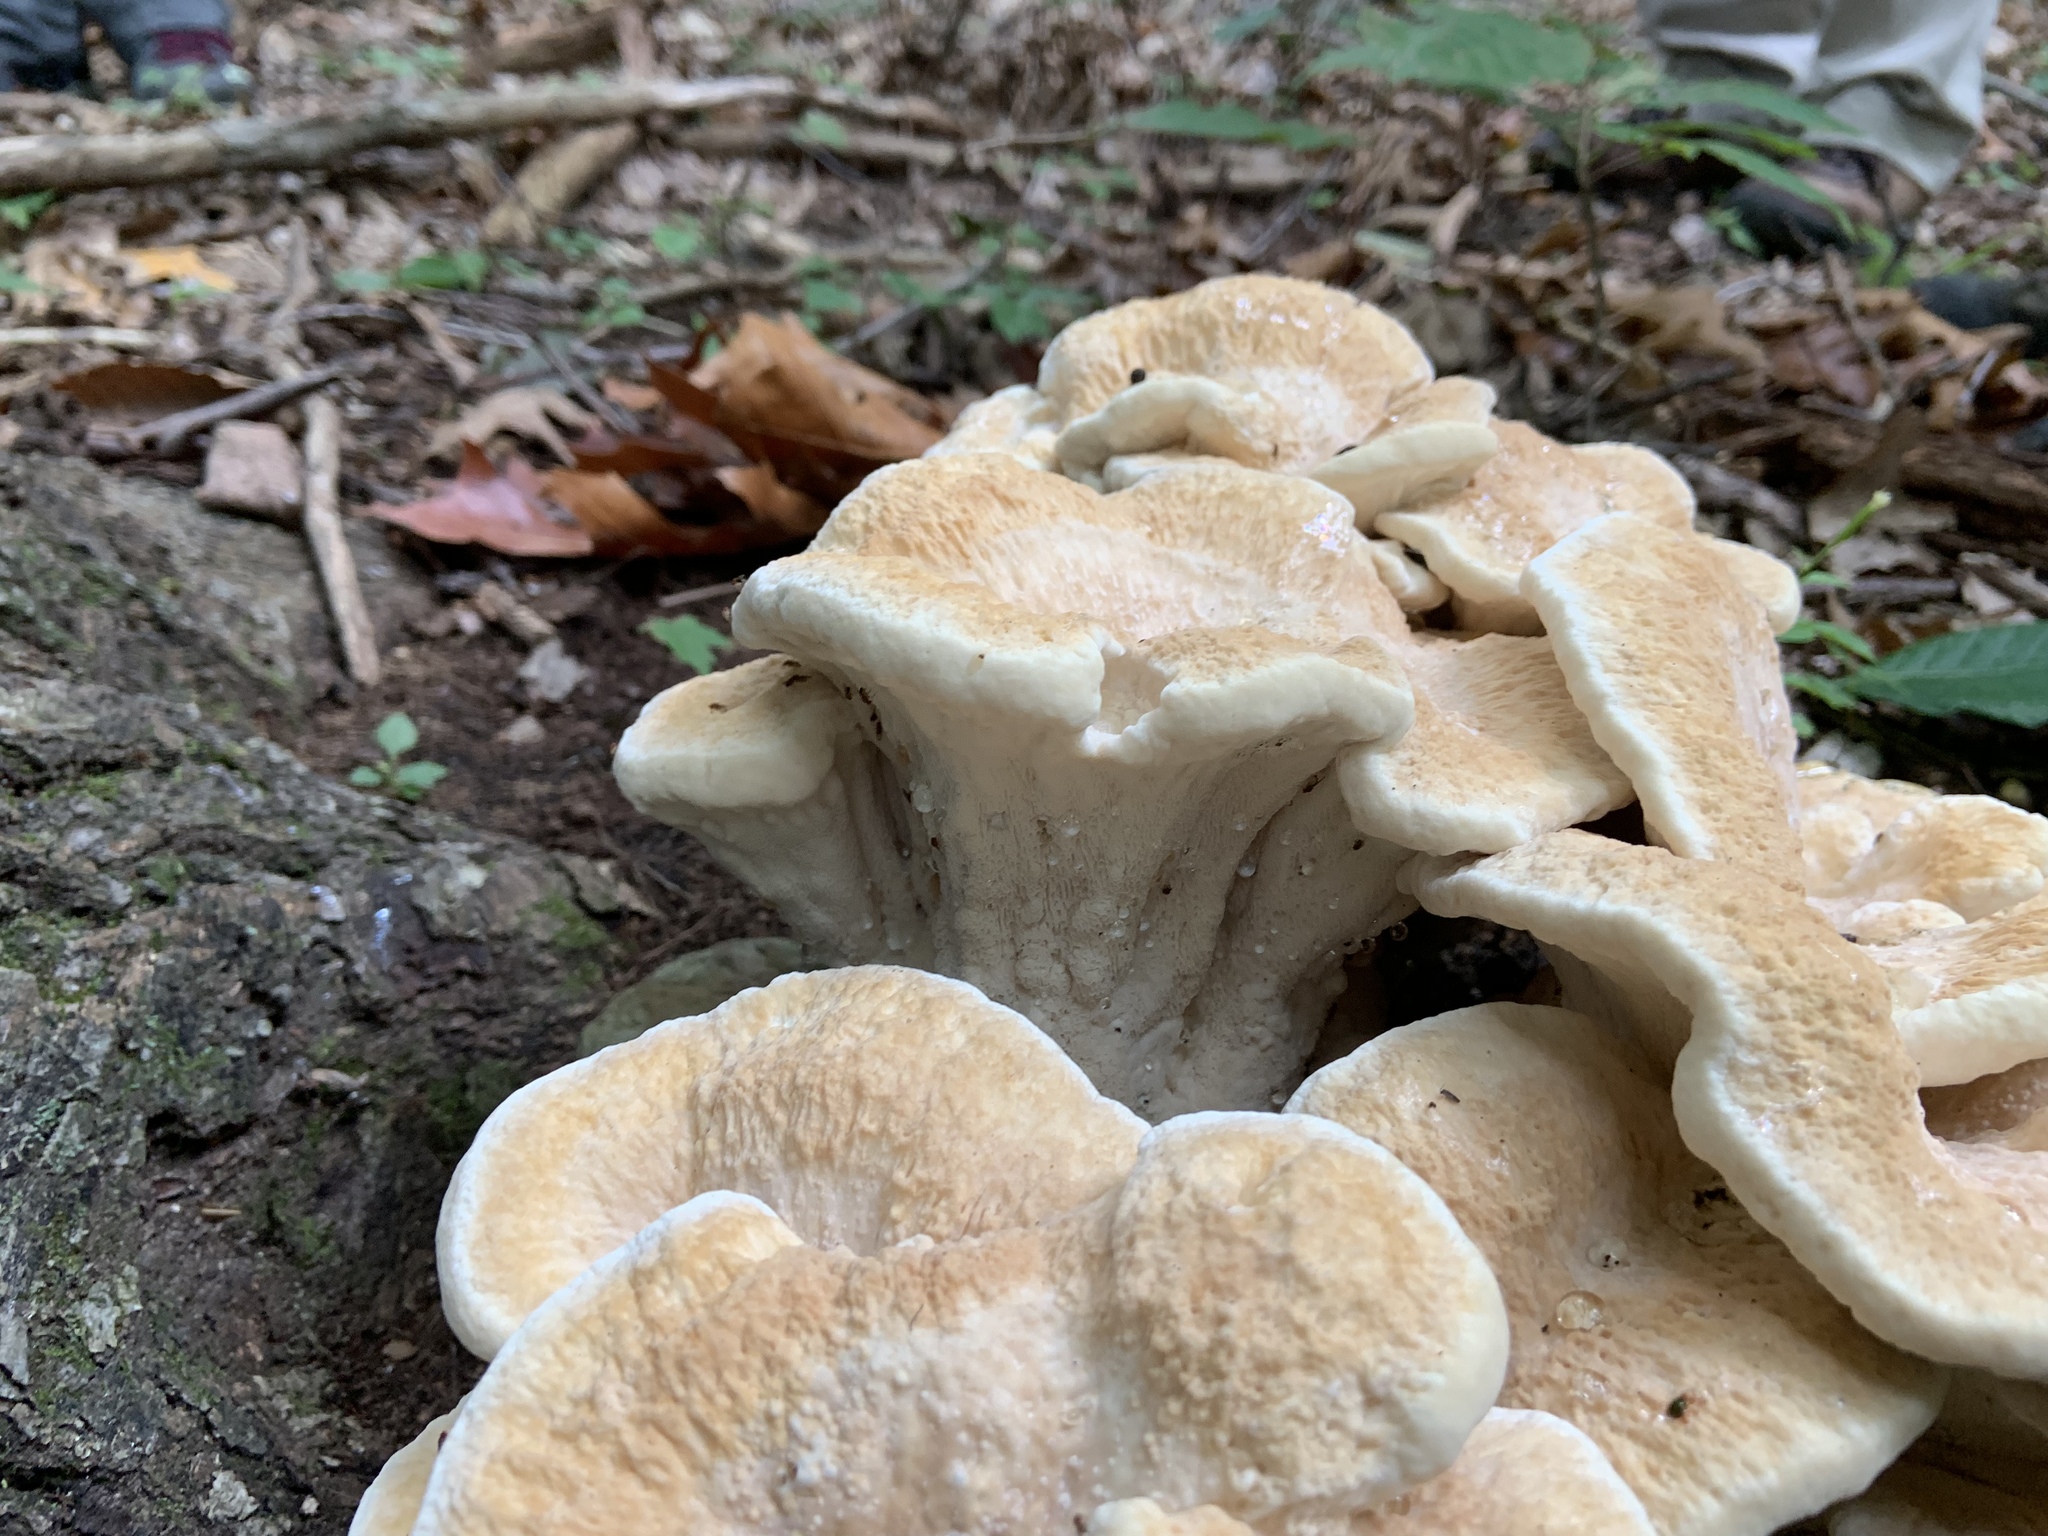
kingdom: Fungi
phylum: Basidiomycota
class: Agaricomycetes
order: Russulales
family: Bondarzewiaceae
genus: Bondarzewia
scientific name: Bondarzewia berkeleyi
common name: Berkeley's polypore
